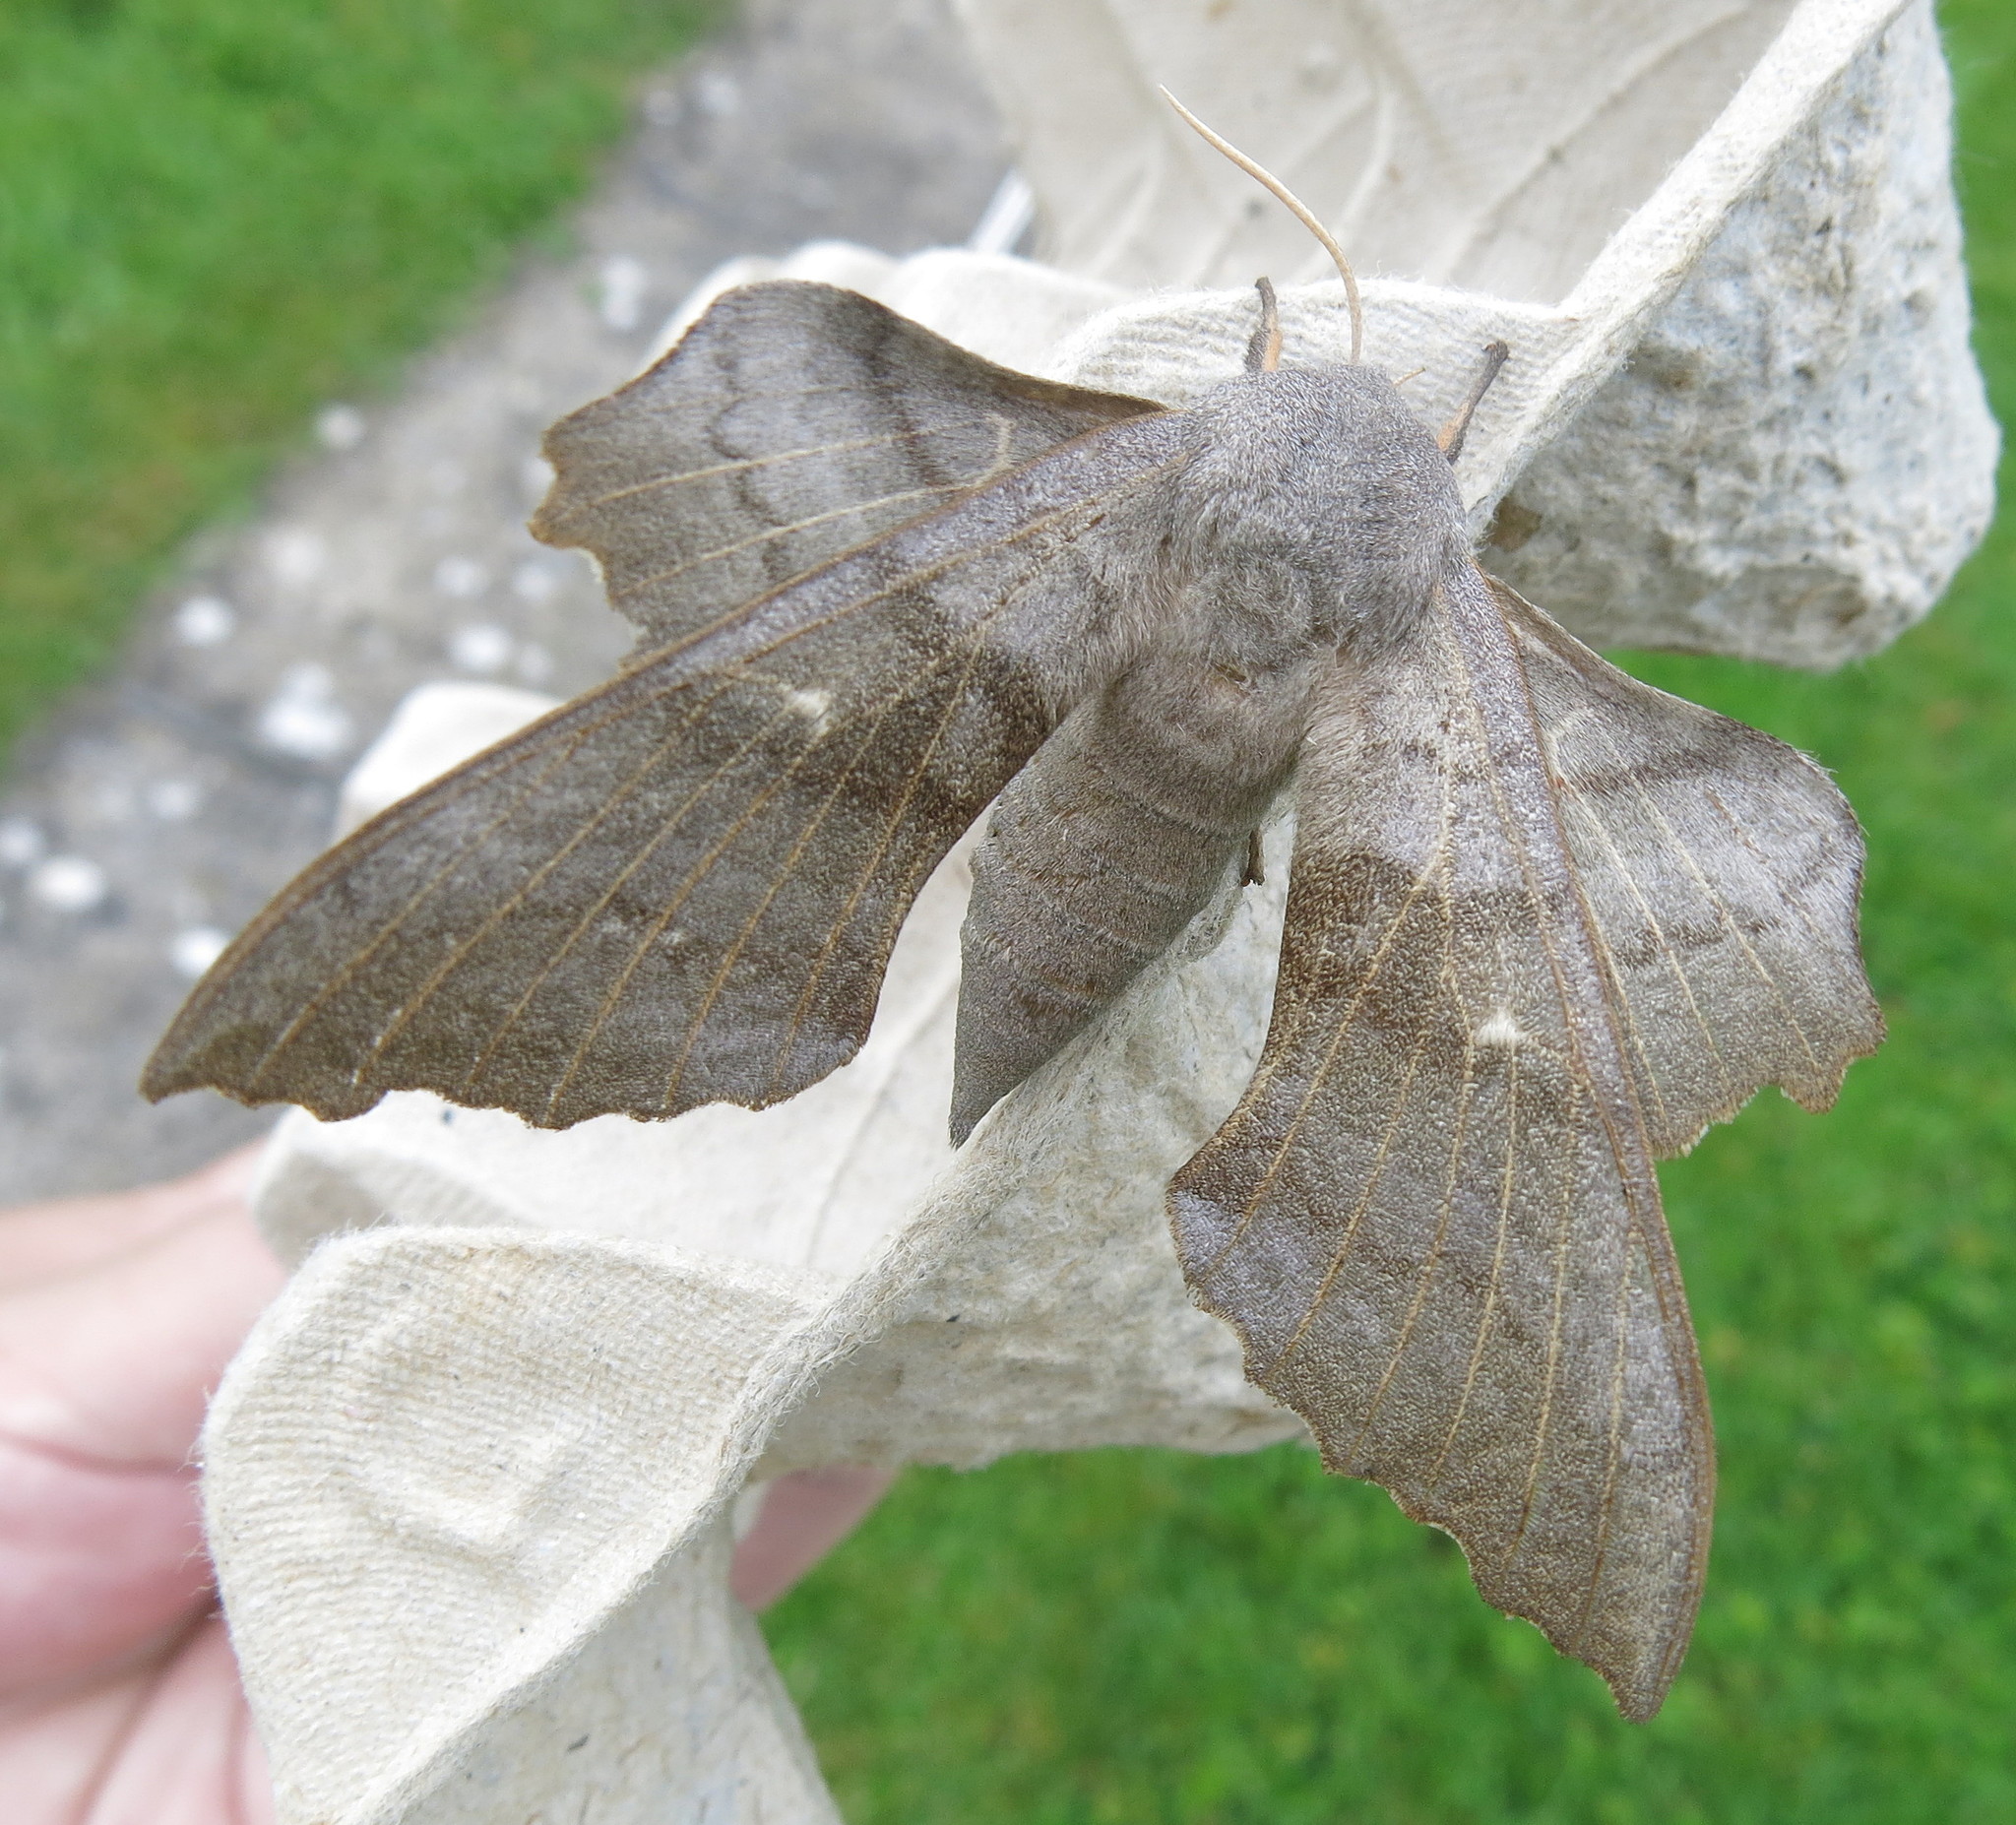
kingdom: Animalia
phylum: Arthropoda
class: Insecta
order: Lepidoptera
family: Sphingidae
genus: Laothoe
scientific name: Laothoe populi
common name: Poplar hawk-moth
